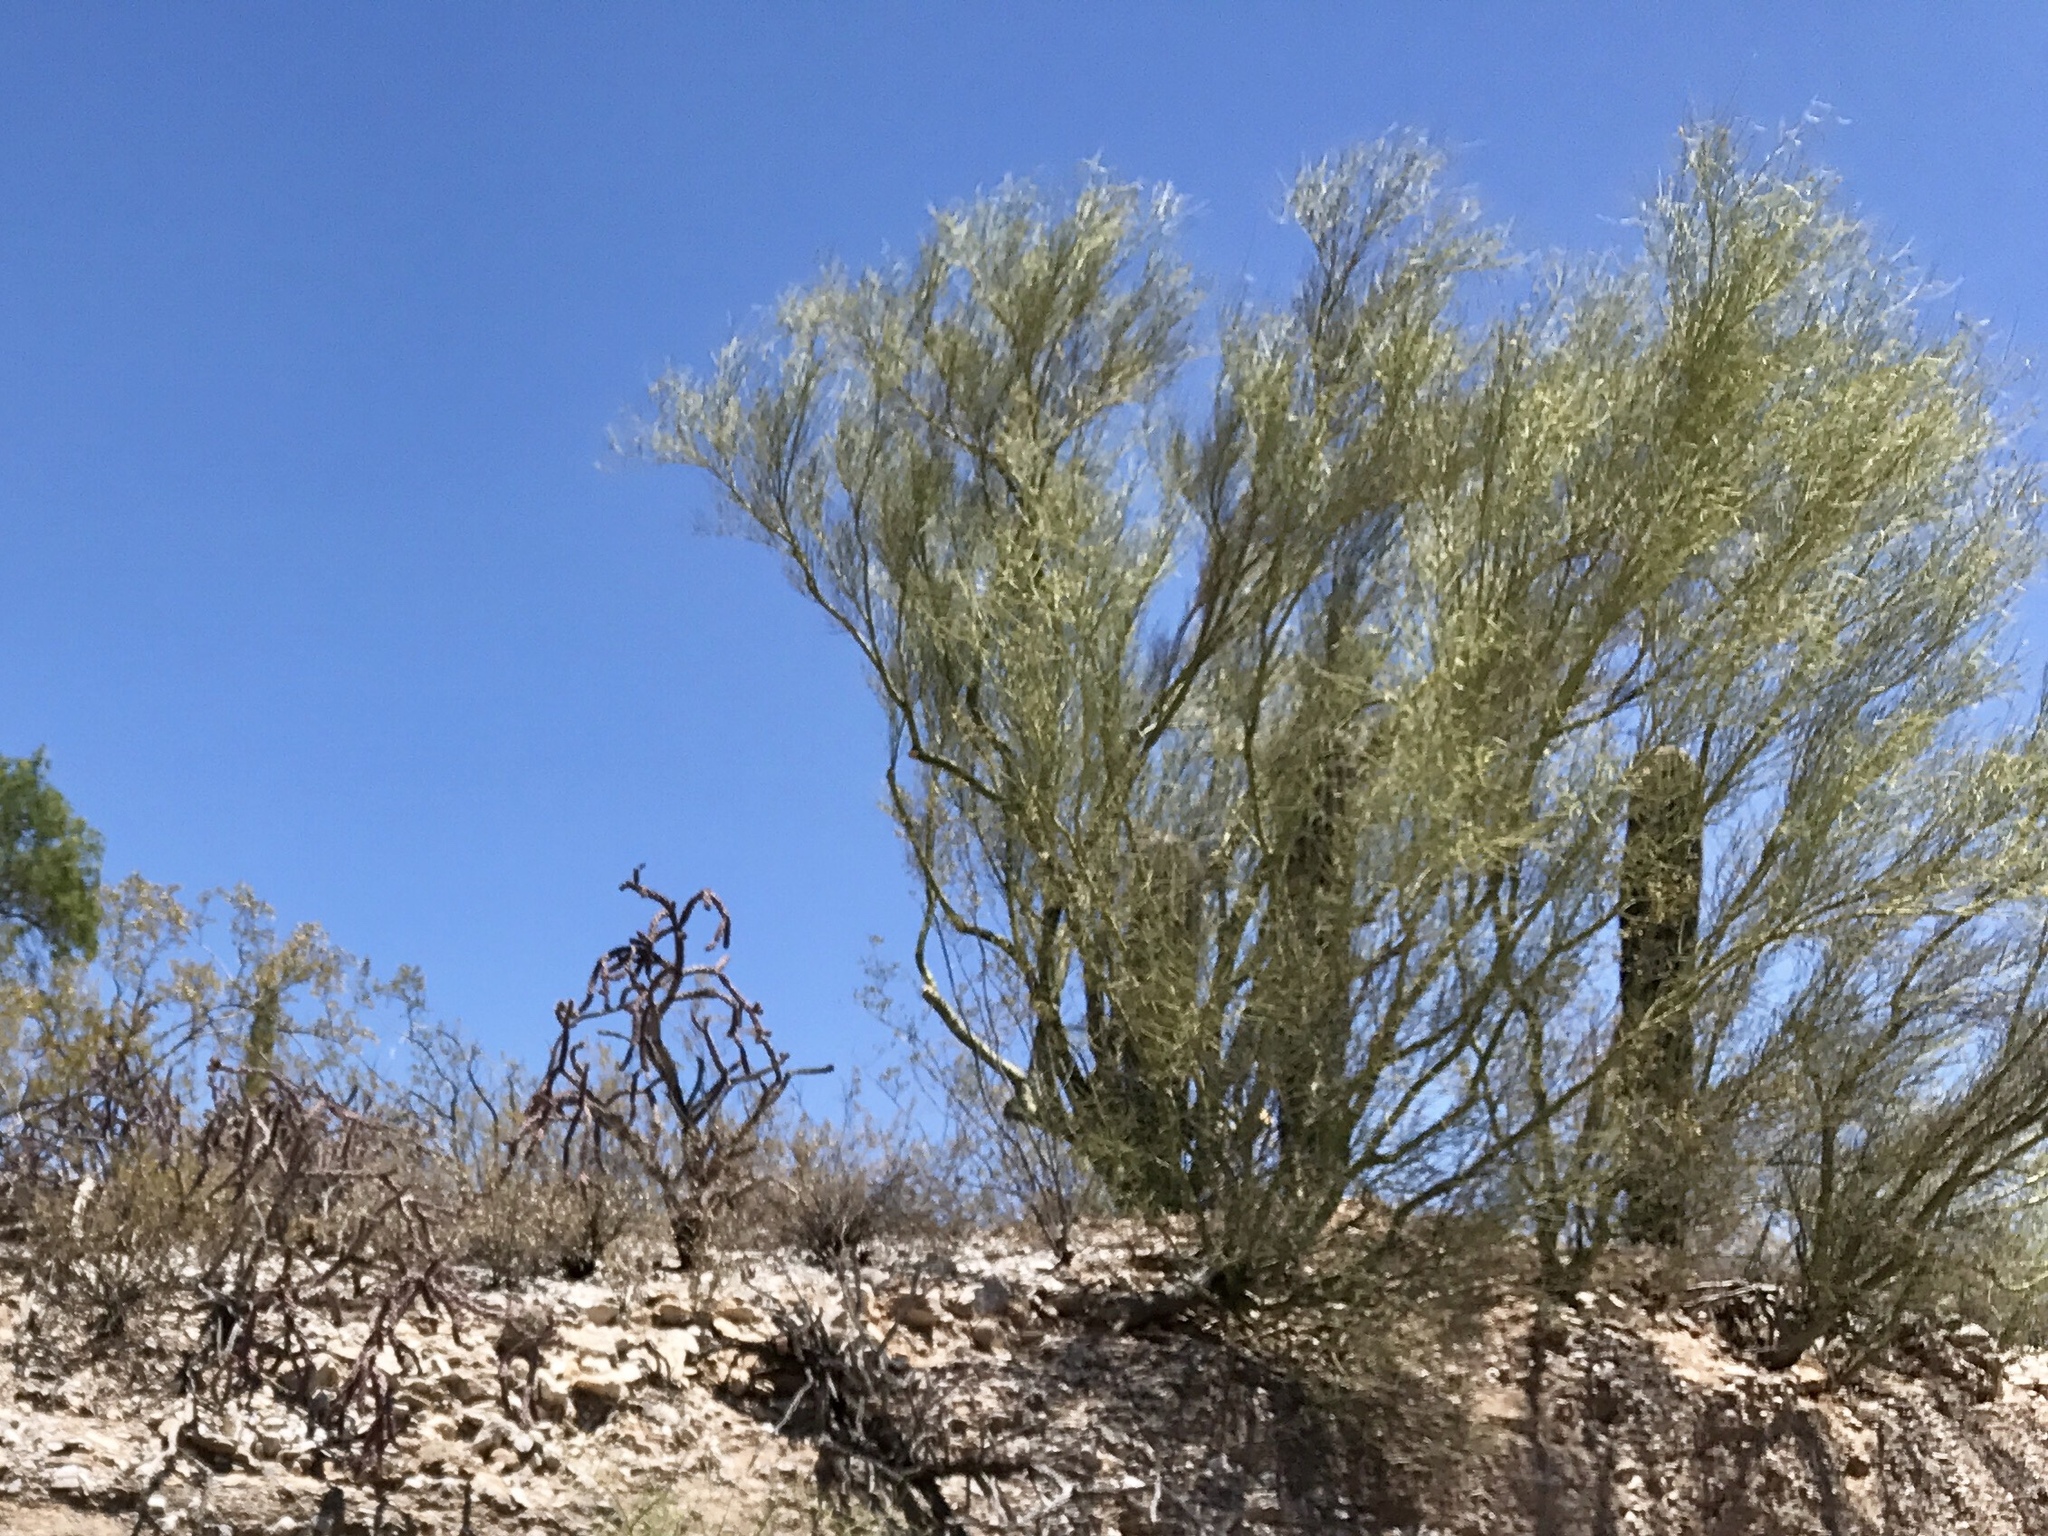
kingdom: Plantae
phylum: Tracheophyta
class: Magnoliopsida
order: Fabales
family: Fabaceae
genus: Parkinsonia
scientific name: Parkinsonia microphylla
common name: Yellow paloverde
